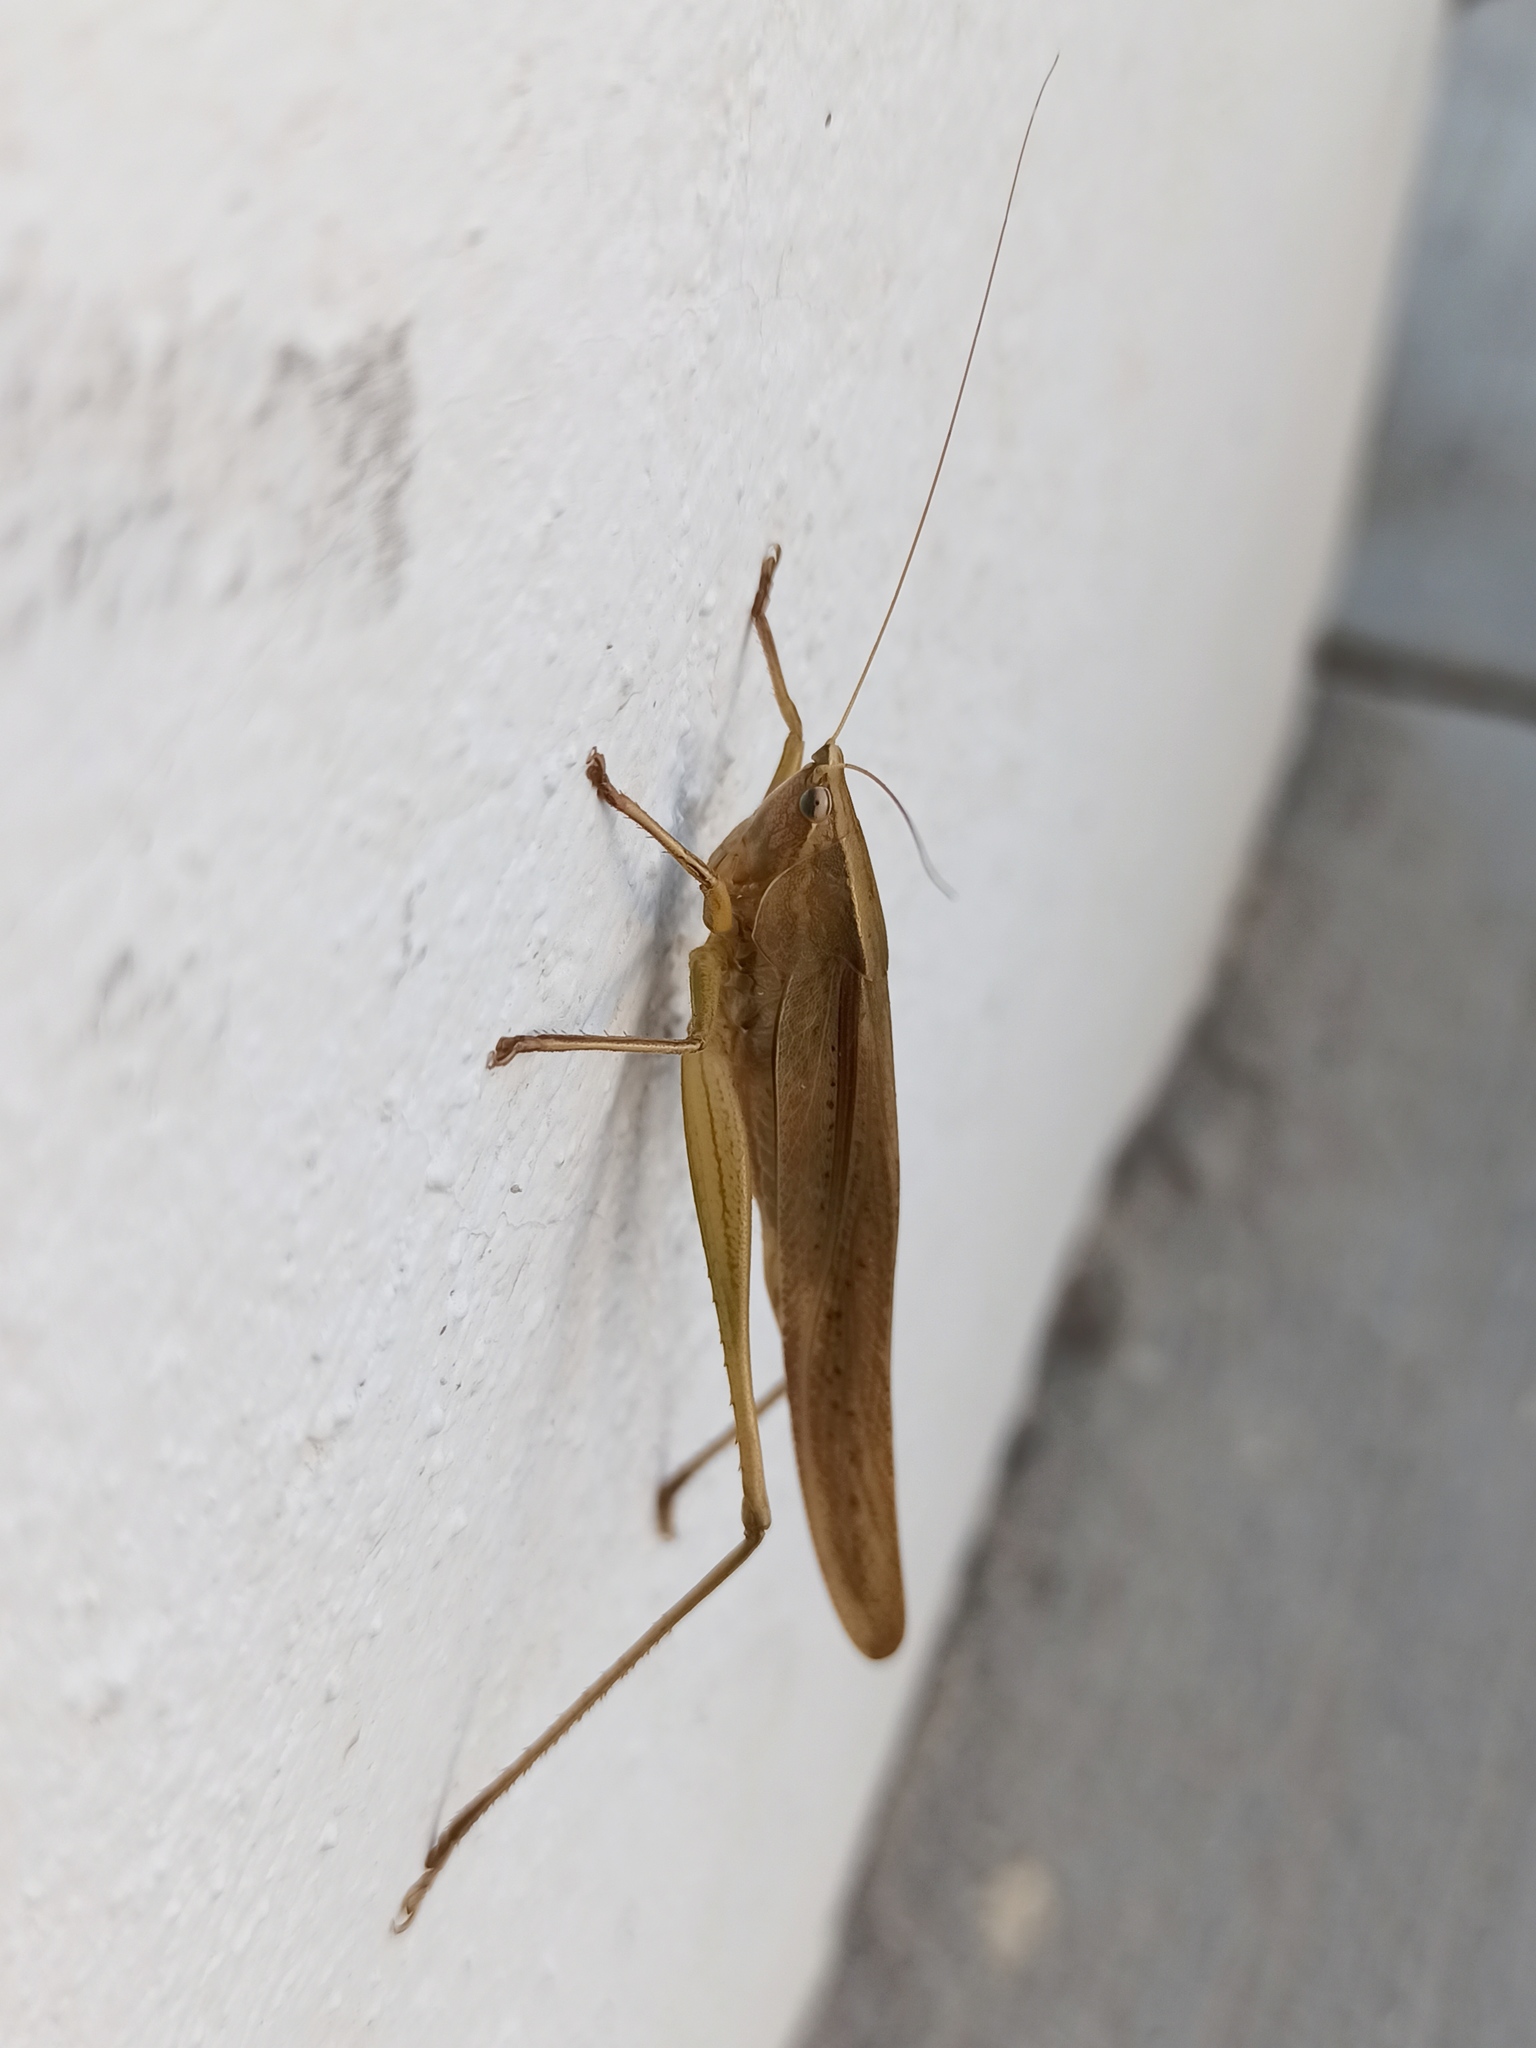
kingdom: Animalia
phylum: Arthropoda
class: Insecta
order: Orthoptera
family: Tettigoniidae
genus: Neoconocephalus
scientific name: Neoconocephalus triops
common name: Broad-tipped conehead
